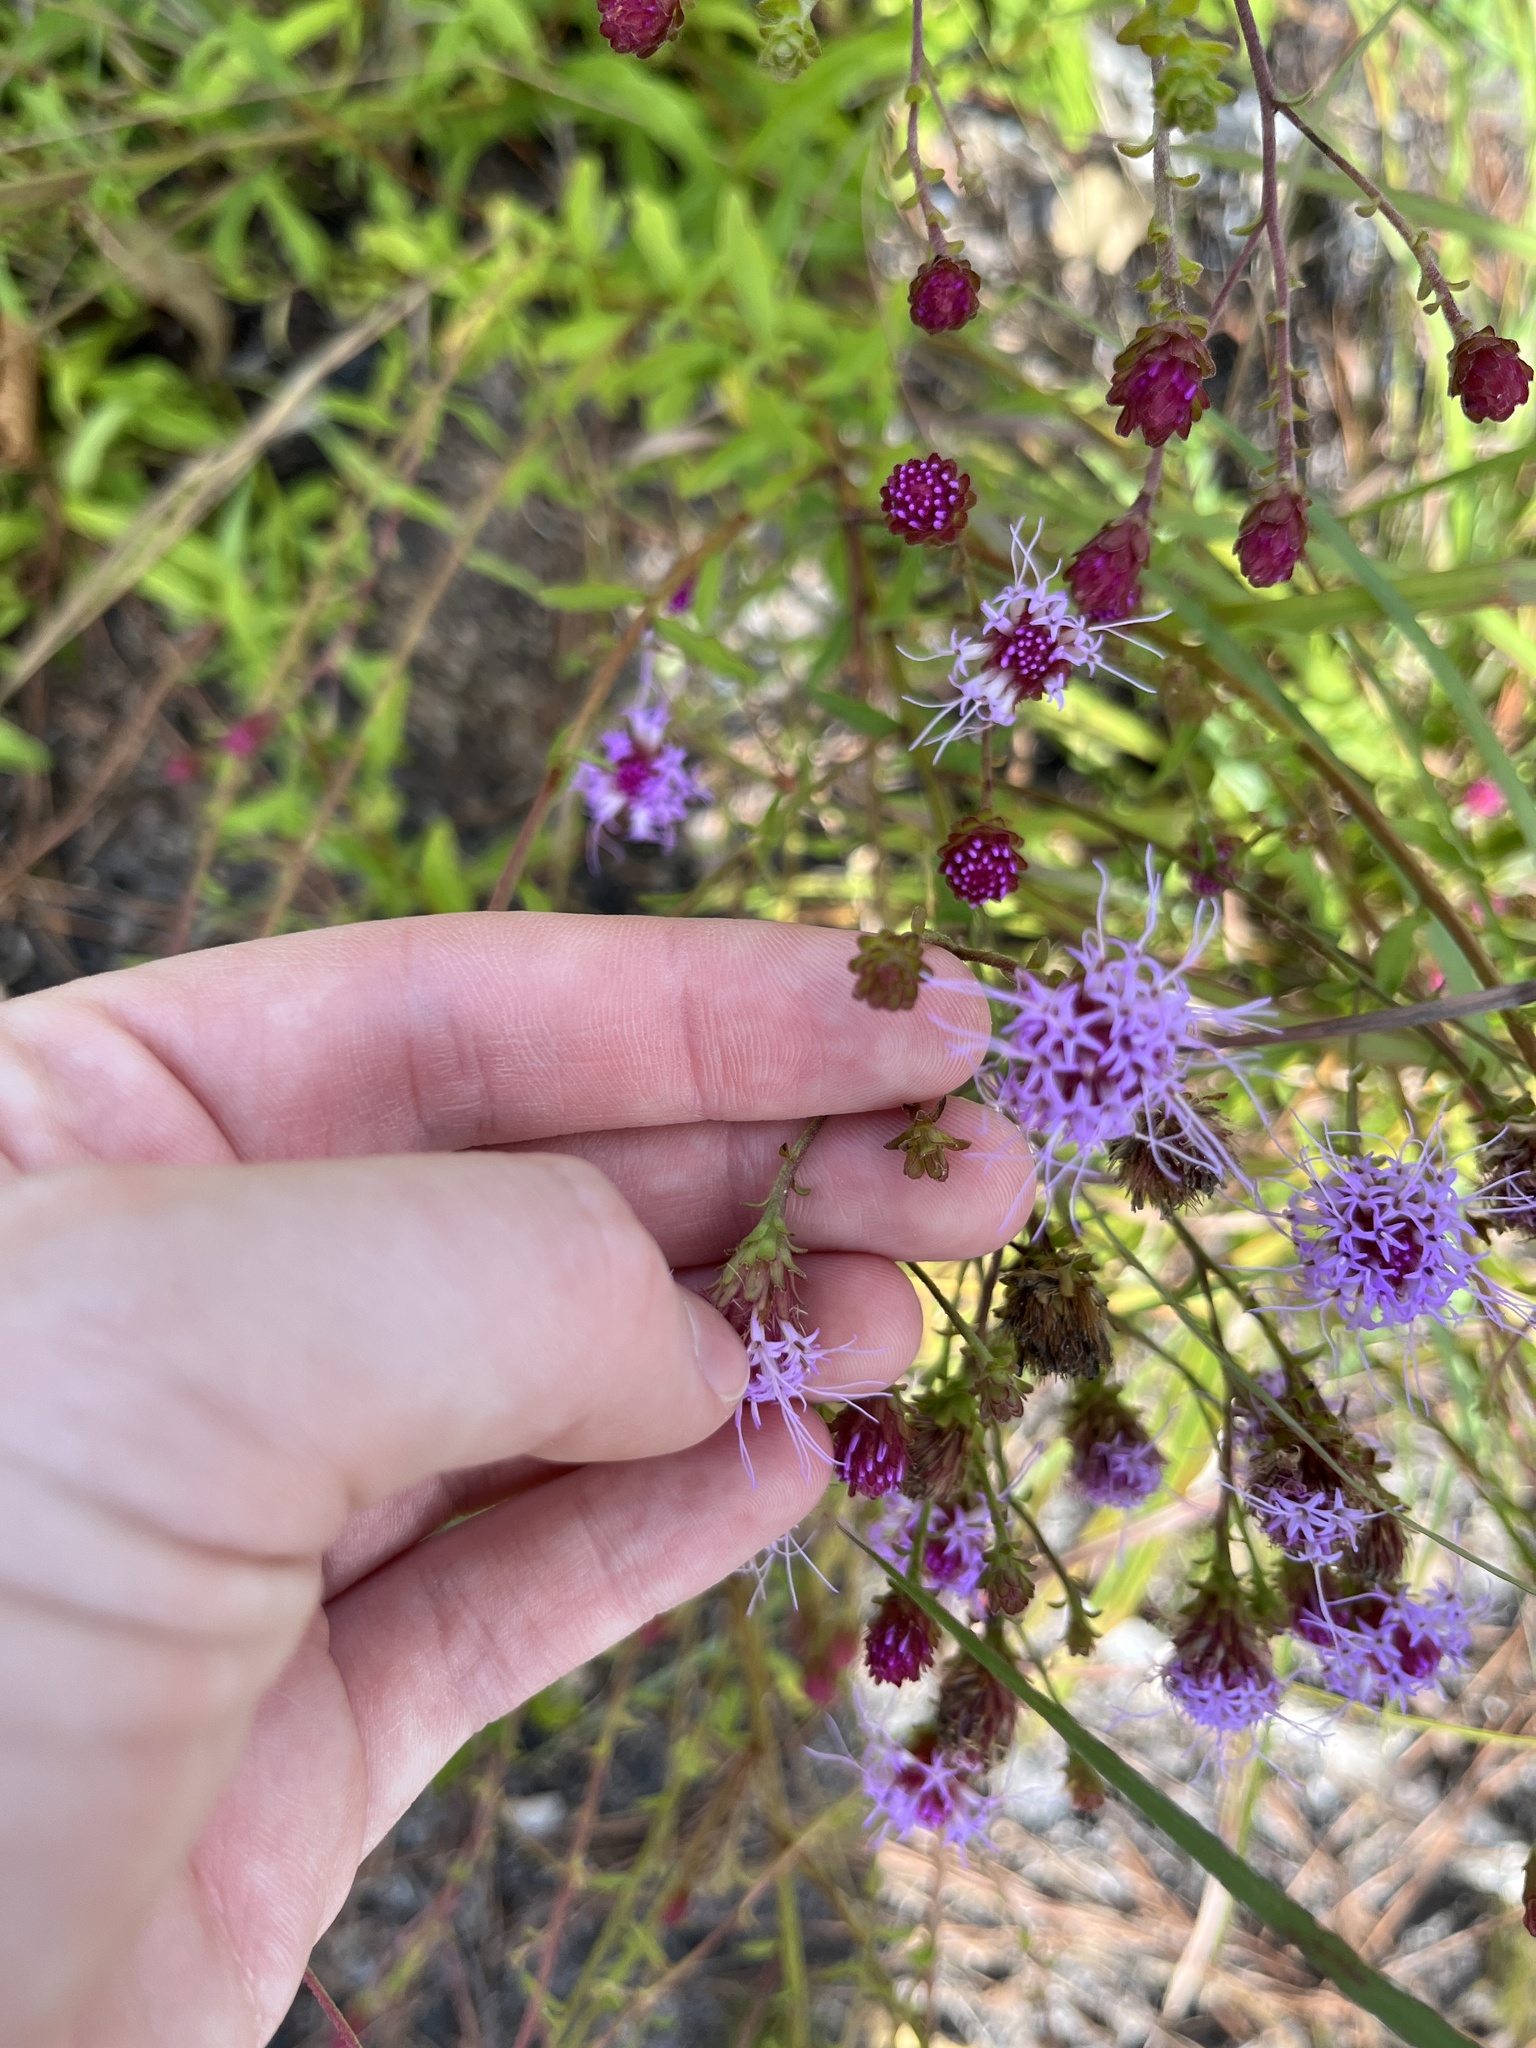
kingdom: Plantae
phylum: Tracheophyta
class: Magnoliopsida
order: Asterales
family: Asteraceae
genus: Carphephorus
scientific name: Carphephorus bellidifolius
